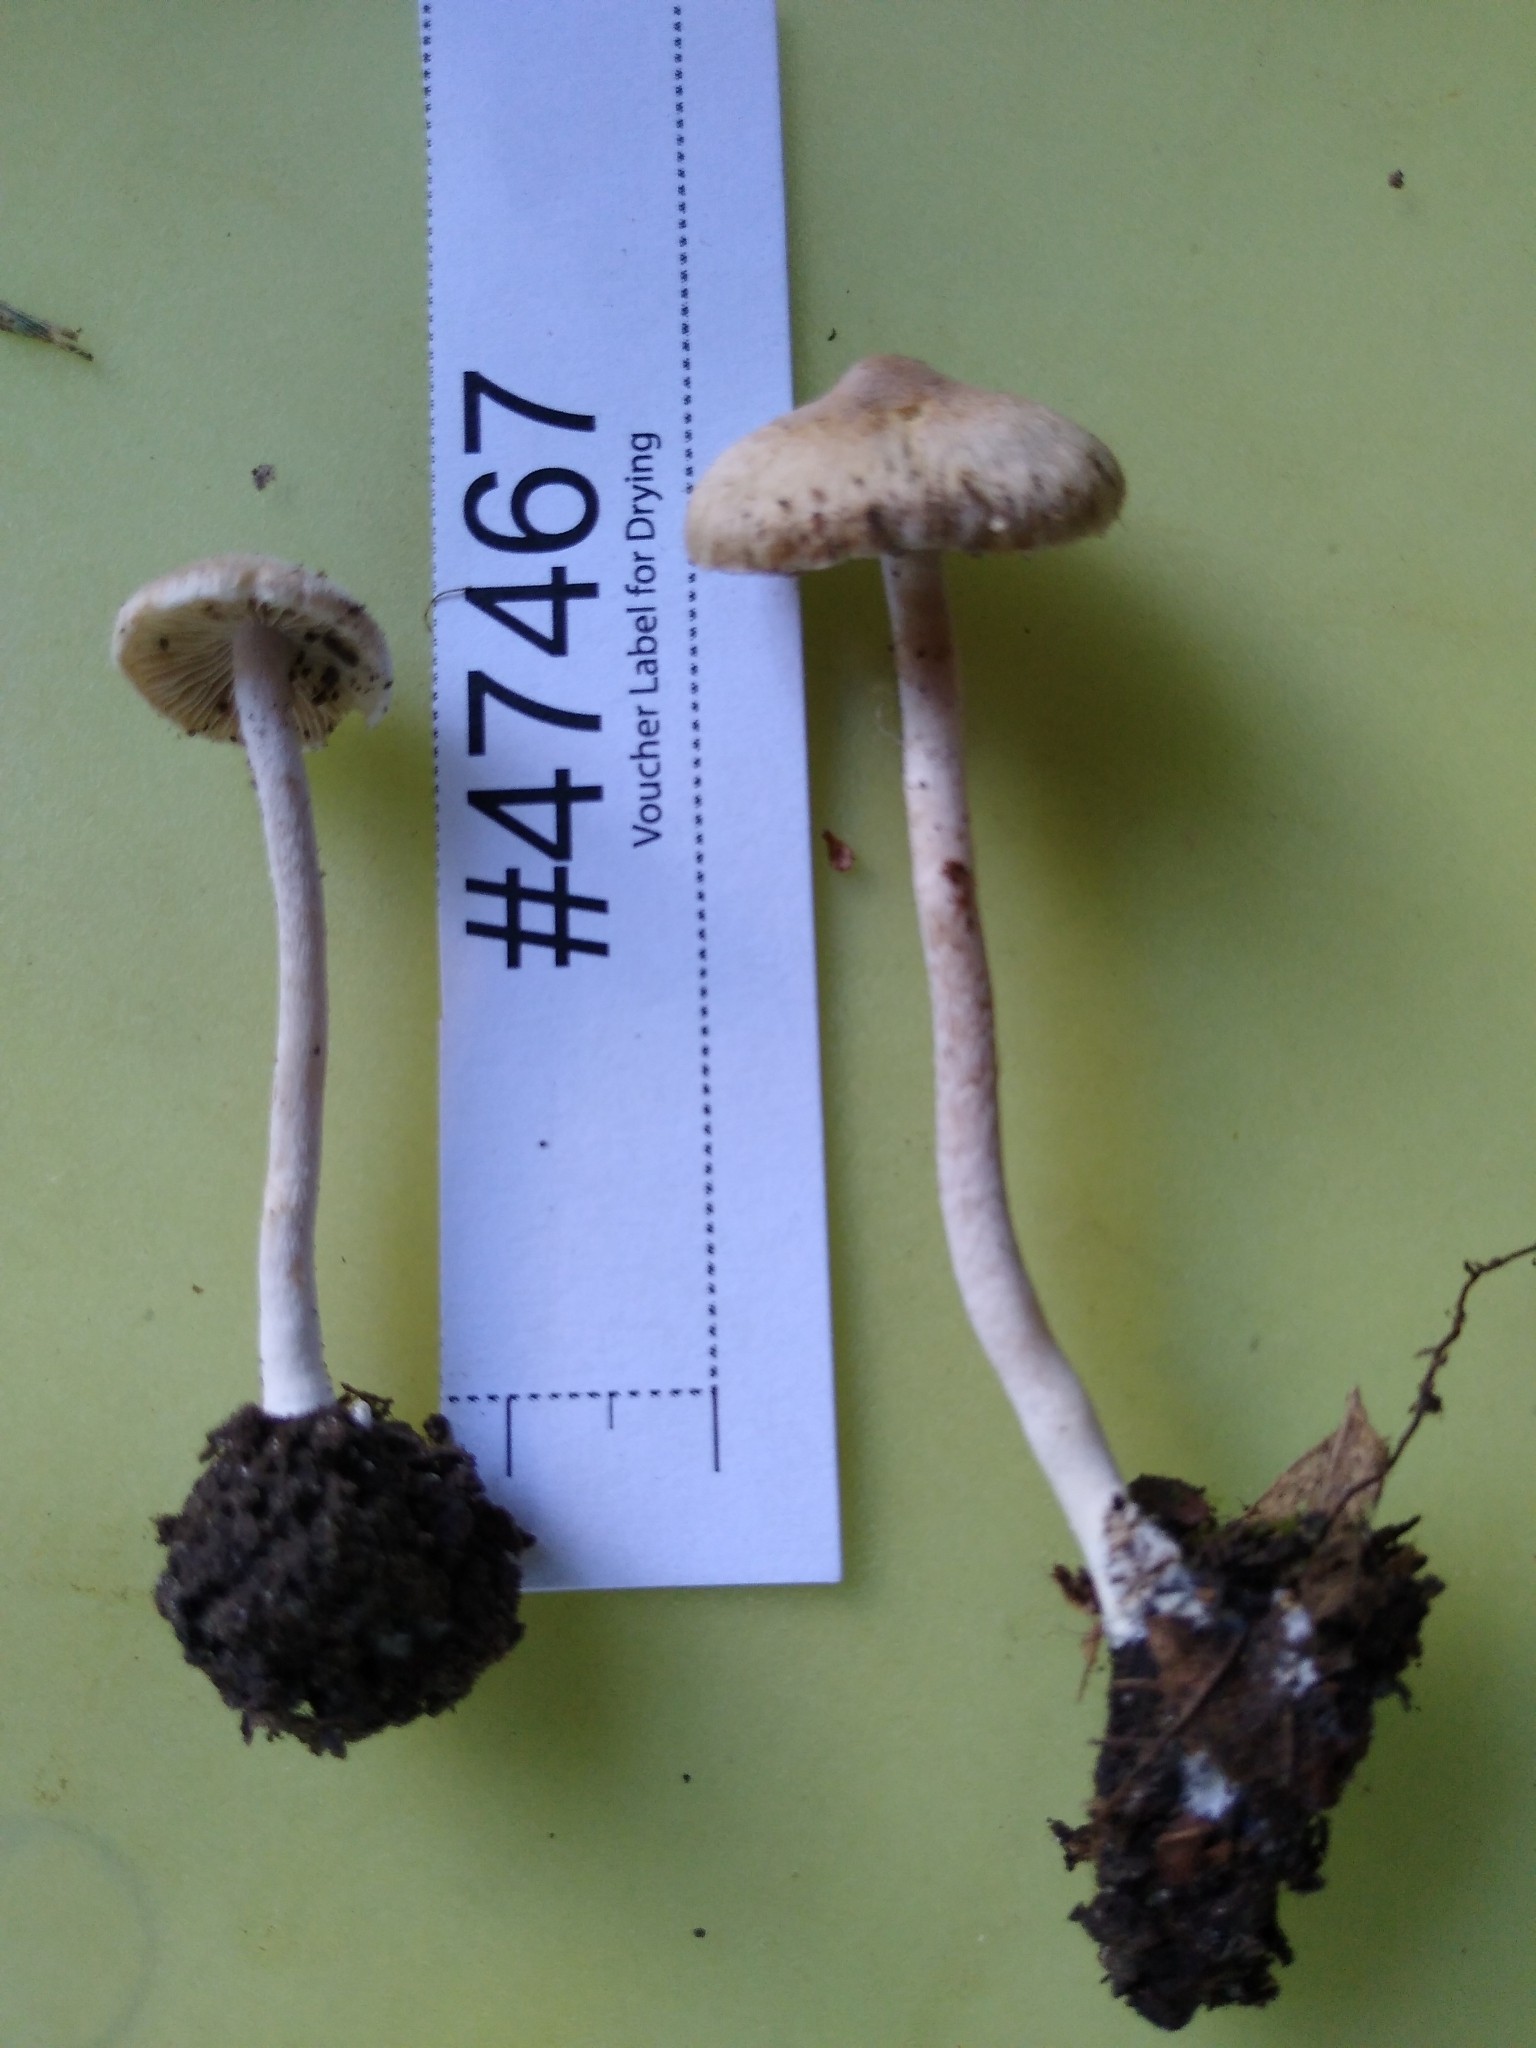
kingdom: Fungi
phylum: Basidiomycota
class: Agaricomycetes
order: Agaricales
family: Inocybaceae
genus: Inocybe
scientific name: Inocybe phaeodisca
